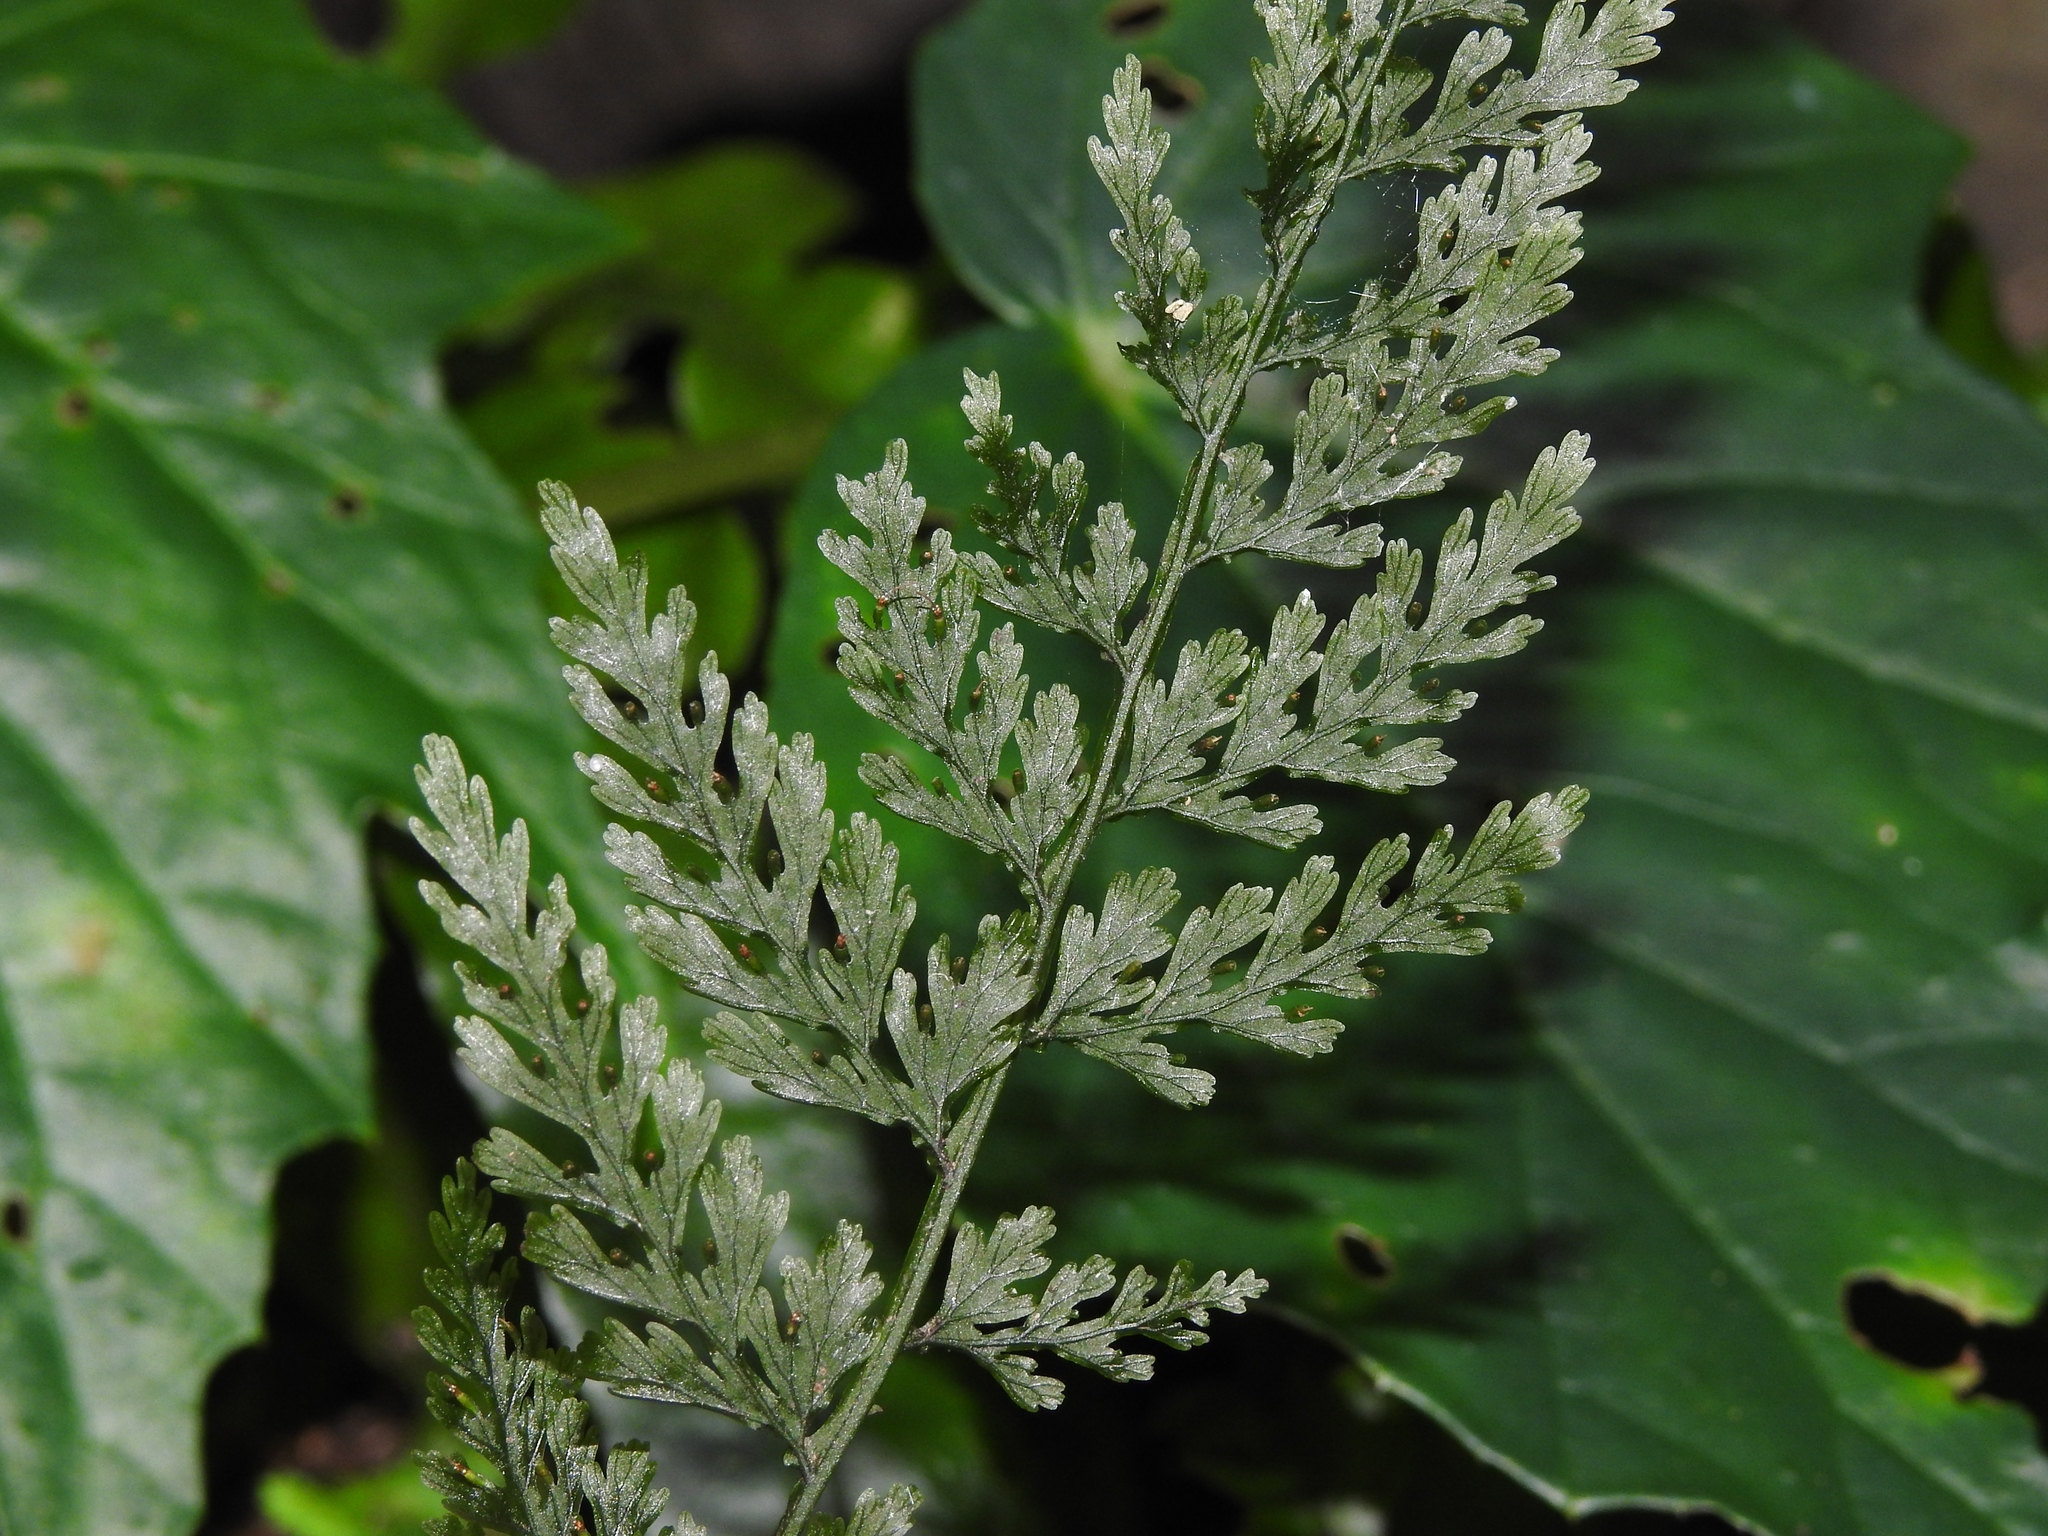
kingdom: Plantae
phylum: Tracheophyta
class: Polypodiopsida
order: Hymenophyllales
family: Hymenophyllaceae
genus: Vandenboschia
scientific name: Vandenboschia striata
